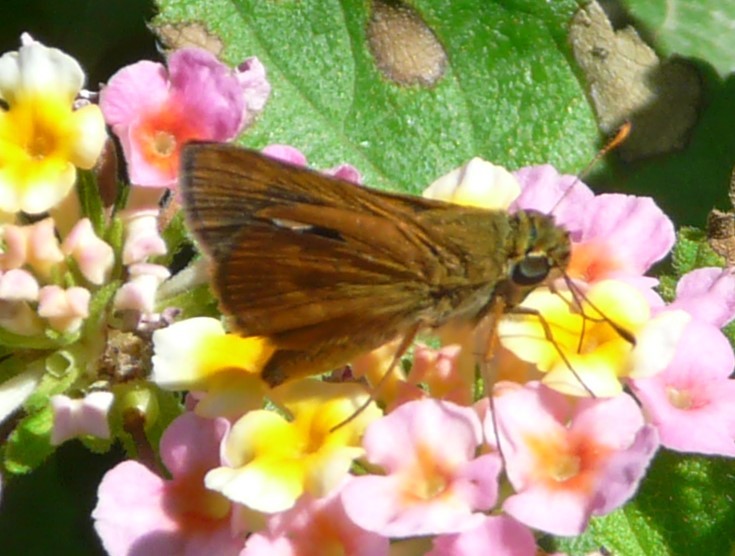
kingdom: Animalia
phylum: Arthropoda
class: Insecta
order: Lepidoptera
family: Hesperiidae
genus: Polites
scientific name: Polites otho
